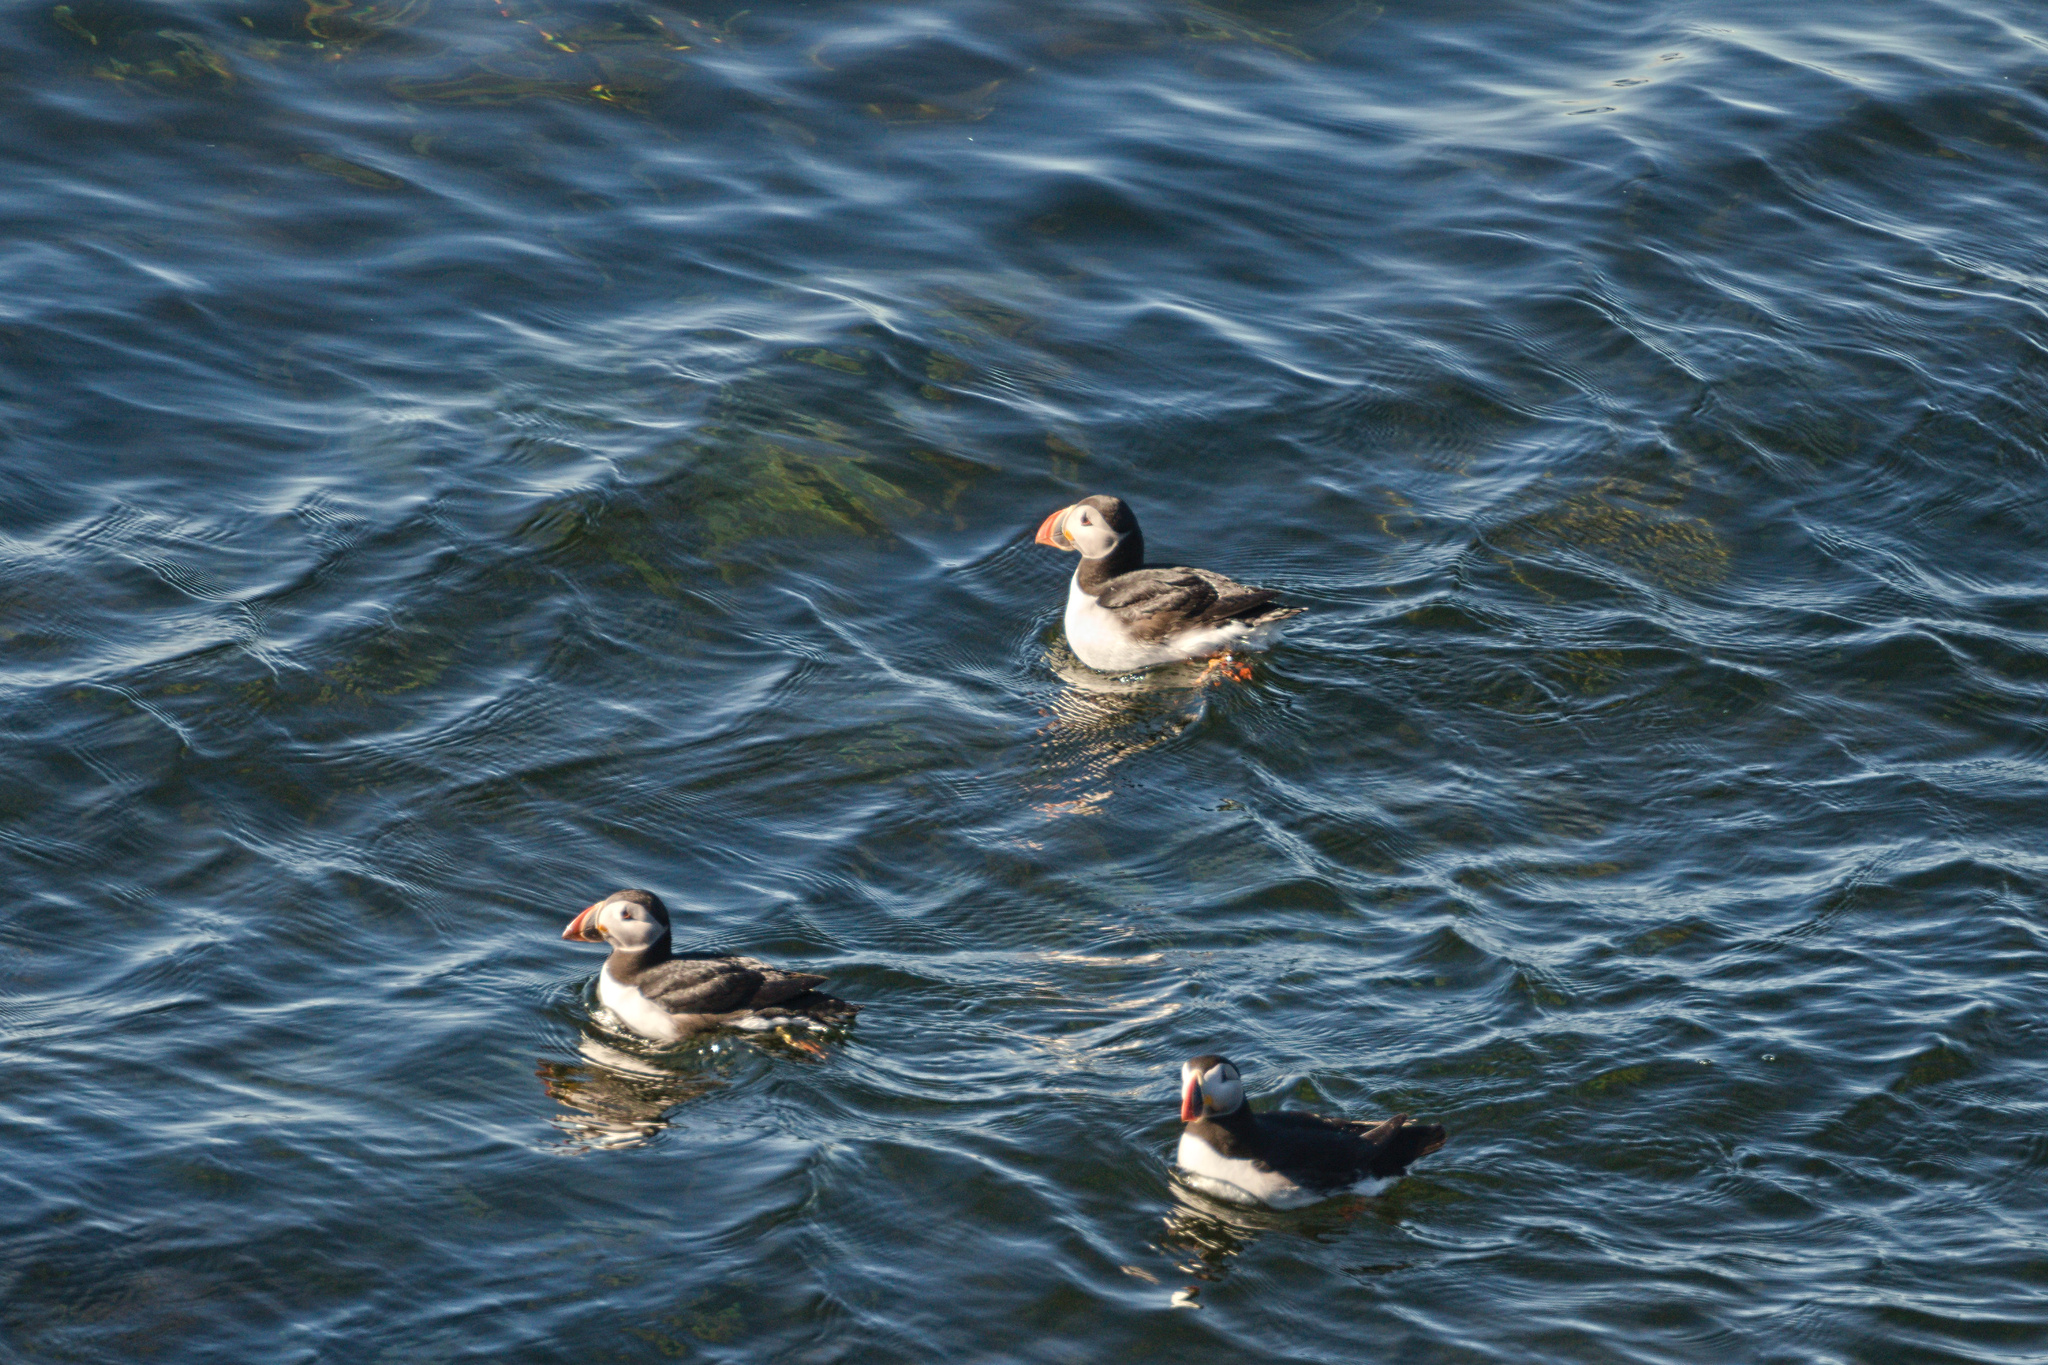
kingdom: Animalia
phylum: Chordata
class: Aves
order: Charadriiformes
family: Alcidae
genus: Fratercula
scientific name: Fratercula arctica
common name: Atlantic puffin
